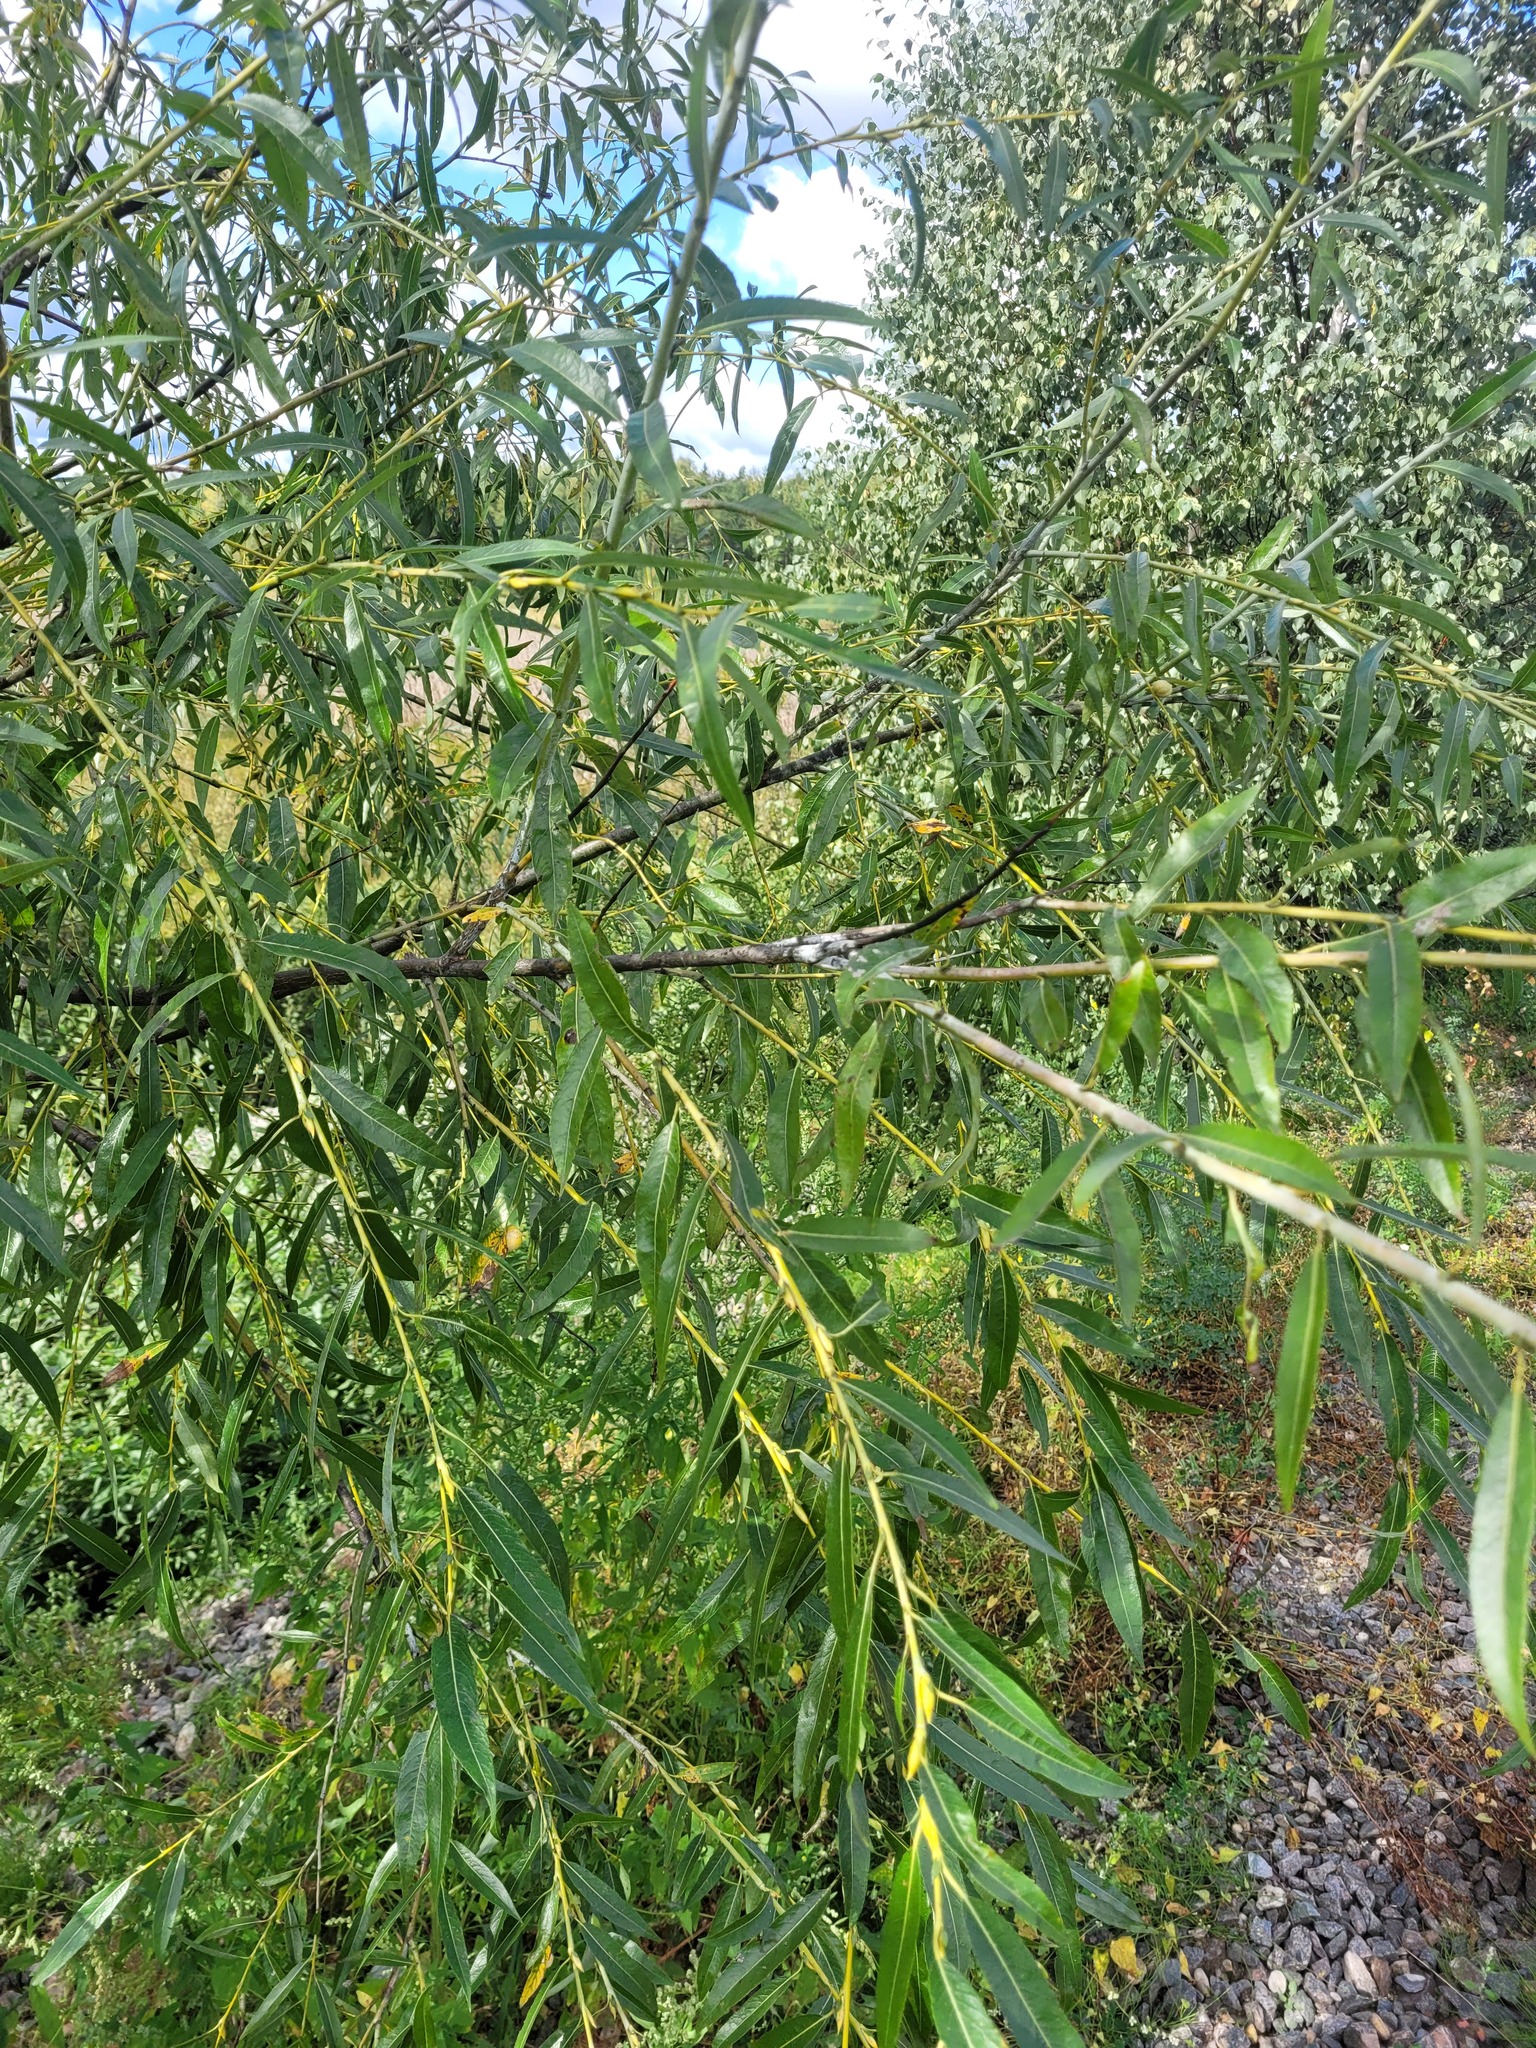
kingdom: Plantae
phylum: Tracheophyta
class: Magnoliopsida
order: Malpighiales
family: Salicaceae
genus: Salix
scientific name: Salix acutifolia
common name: Siberian violet-willow
